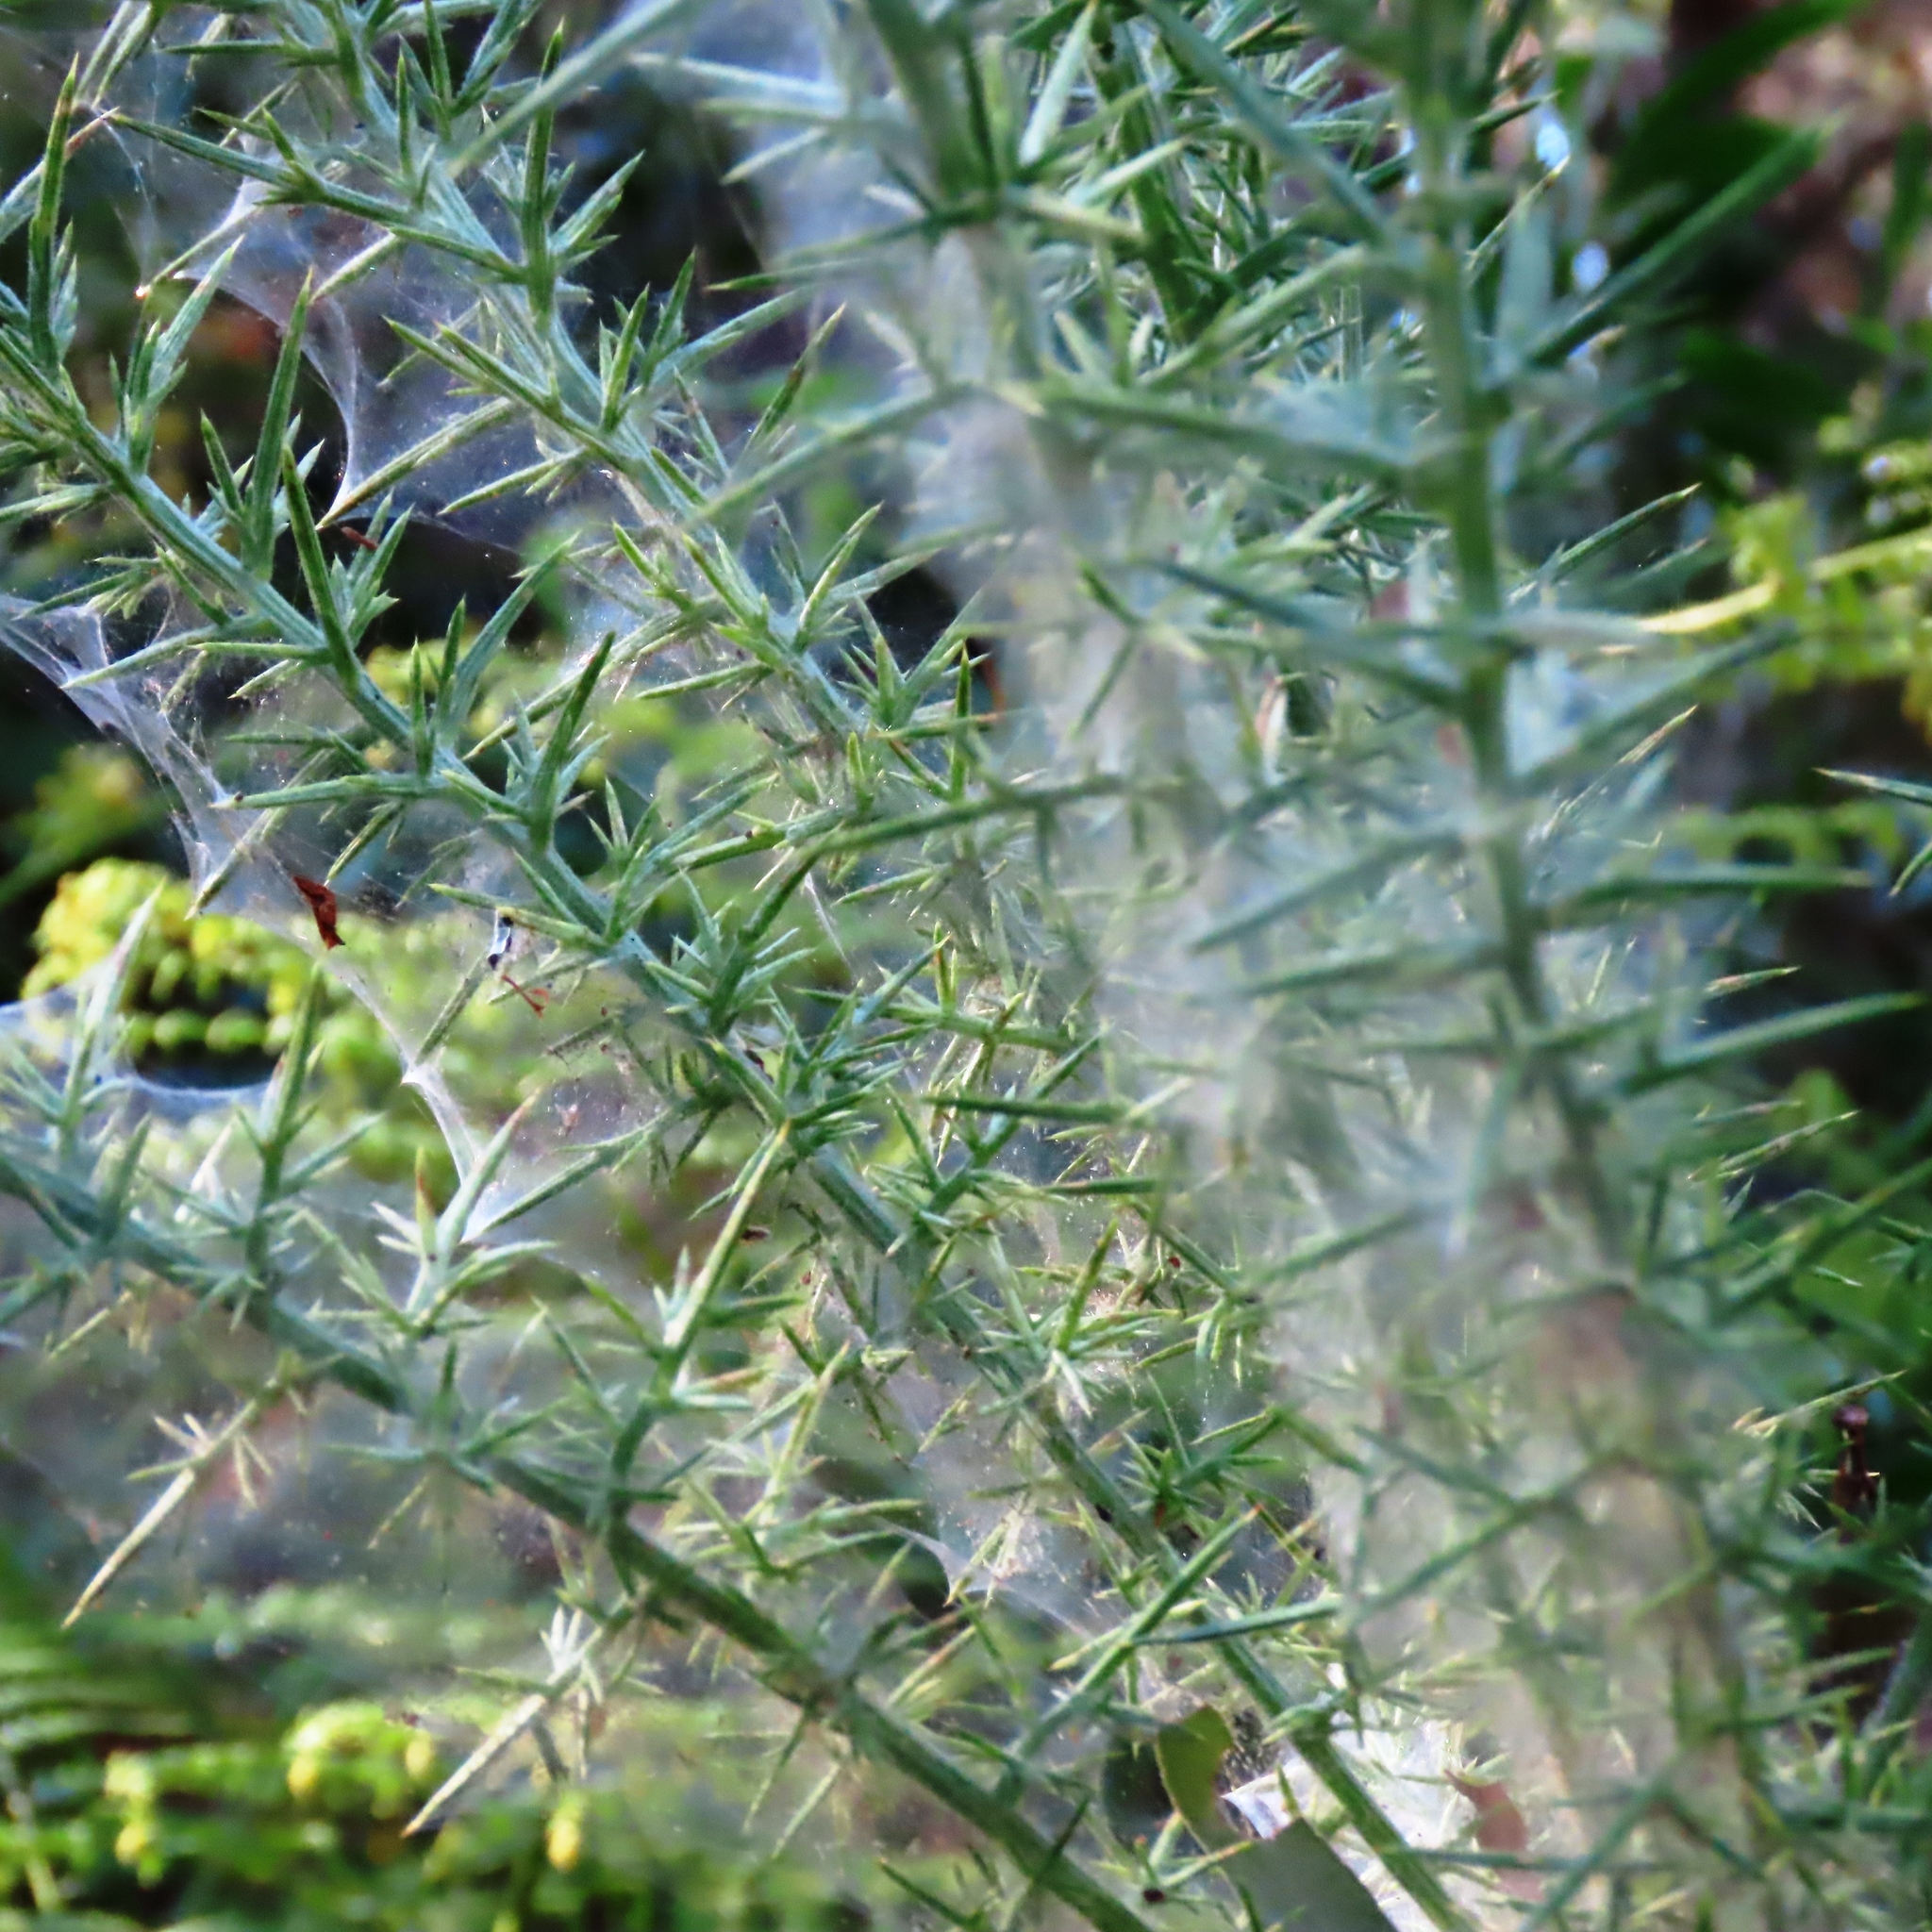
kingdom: Animalia
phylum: Arthropoda
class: Arachnida
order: Trombidiformes
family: Tetranychidae
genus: Tetranychus
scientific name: Tetranychus lintearius
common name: Gorse spider mite
